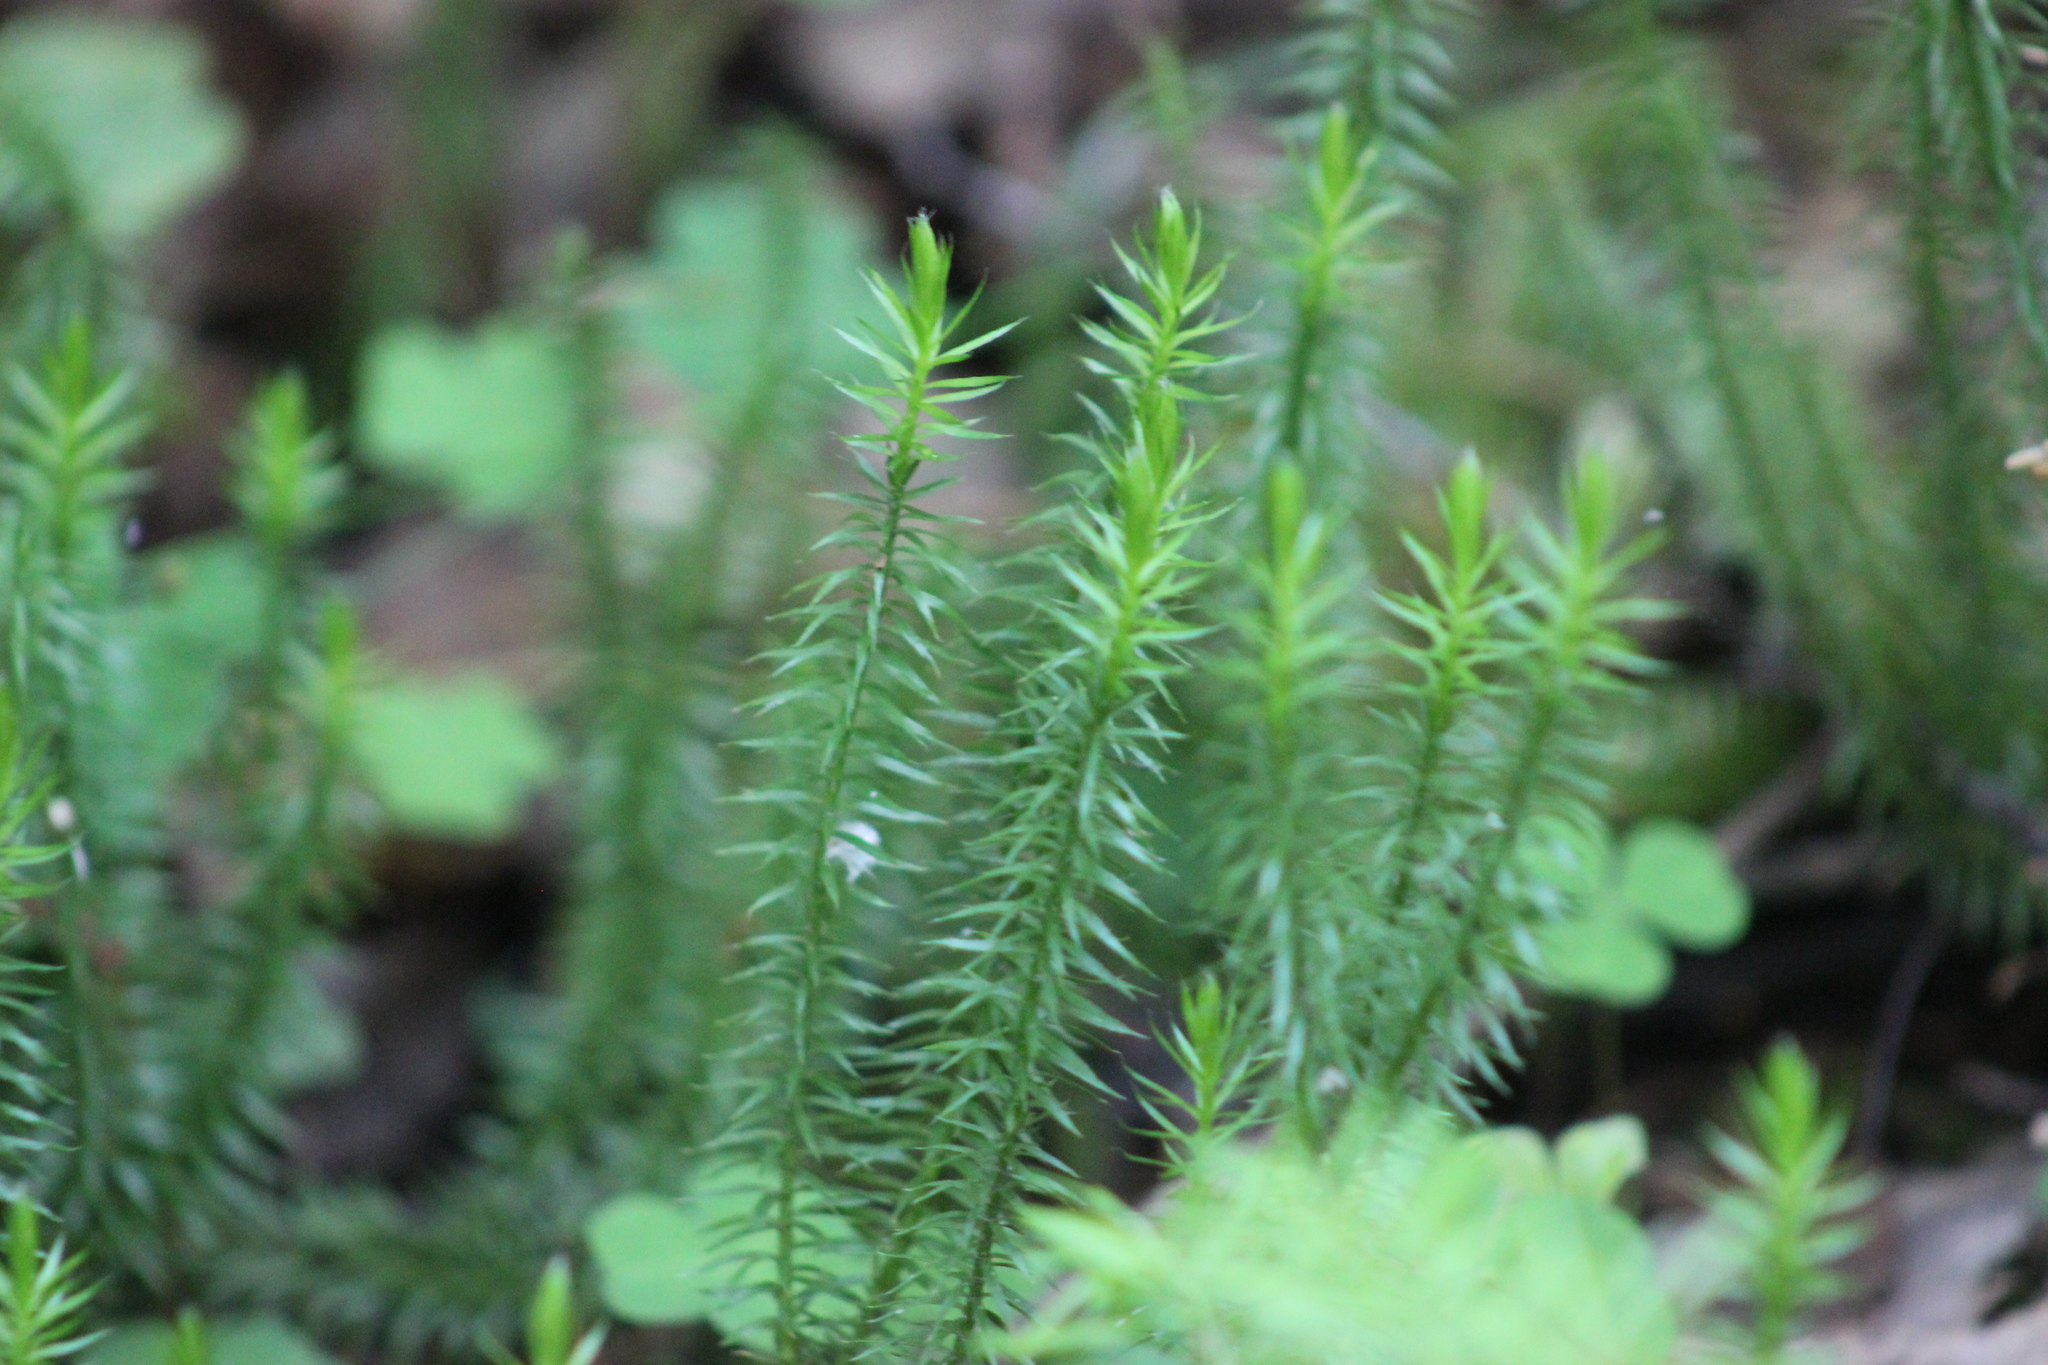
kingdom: Plantae
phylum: Tracheophyta
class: Lycopodiopsida
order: Lycopodiales
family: Lycopodiaceae
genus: Spinulum
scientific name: Spinulum annotinum
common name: Interrupted club-moss
